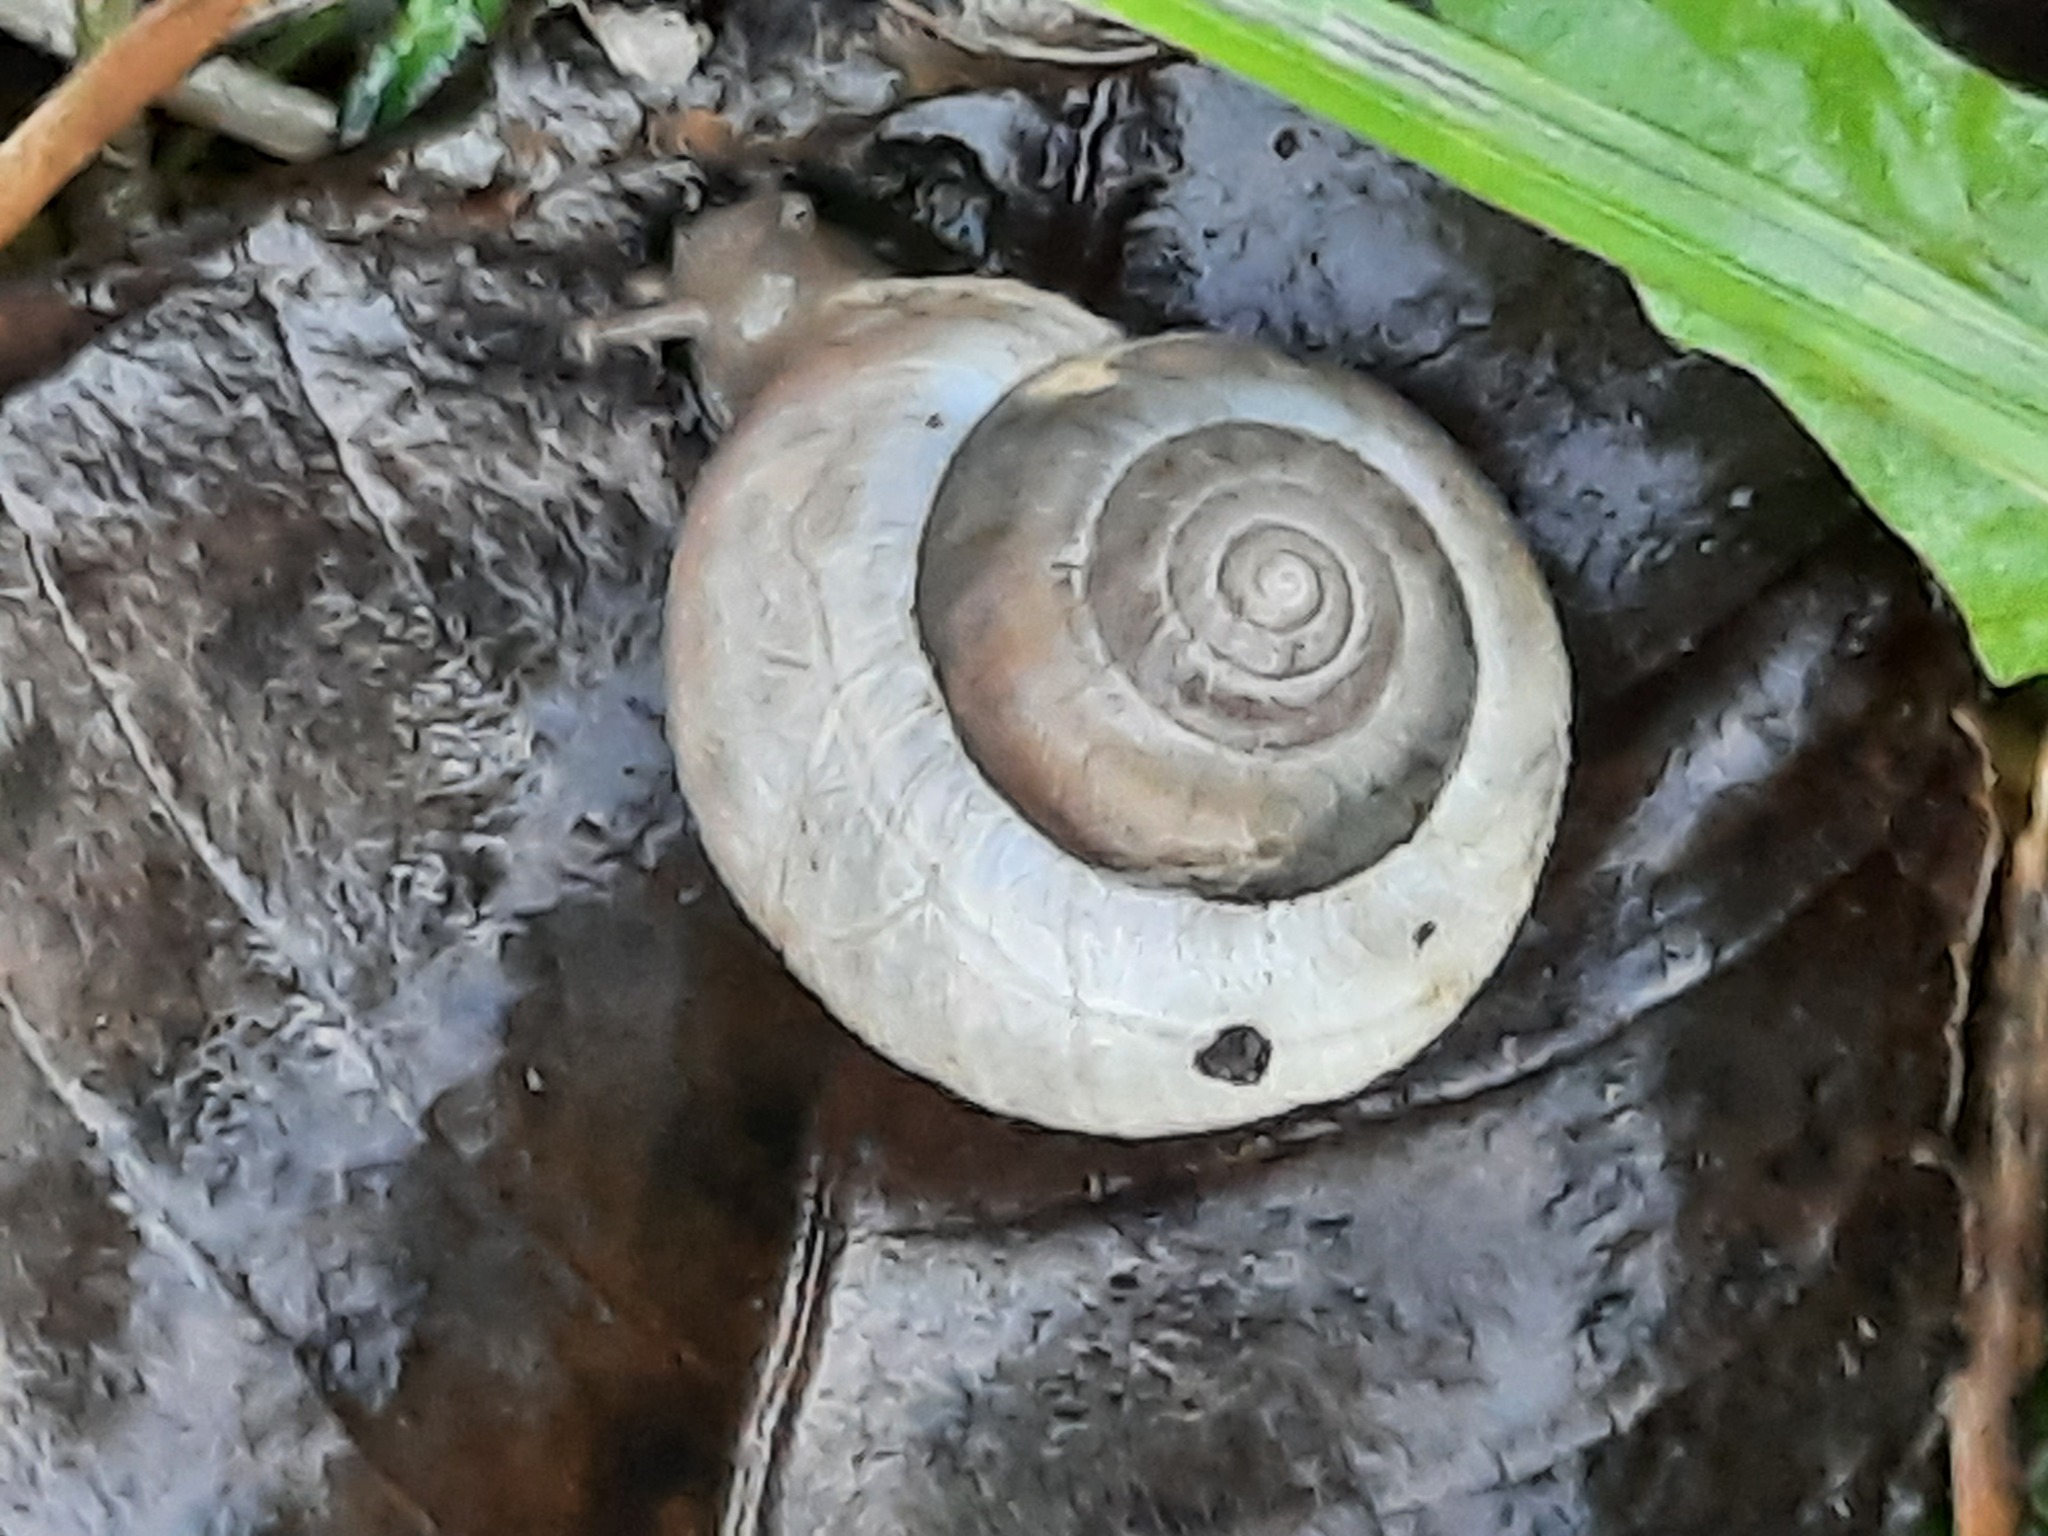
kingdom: Animalia
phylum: Mollusca
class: Gastropoda
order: Stylommatophora
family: Hygromiidae
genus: Monacha
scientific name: Monacha cantiana
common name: Kentish snail
